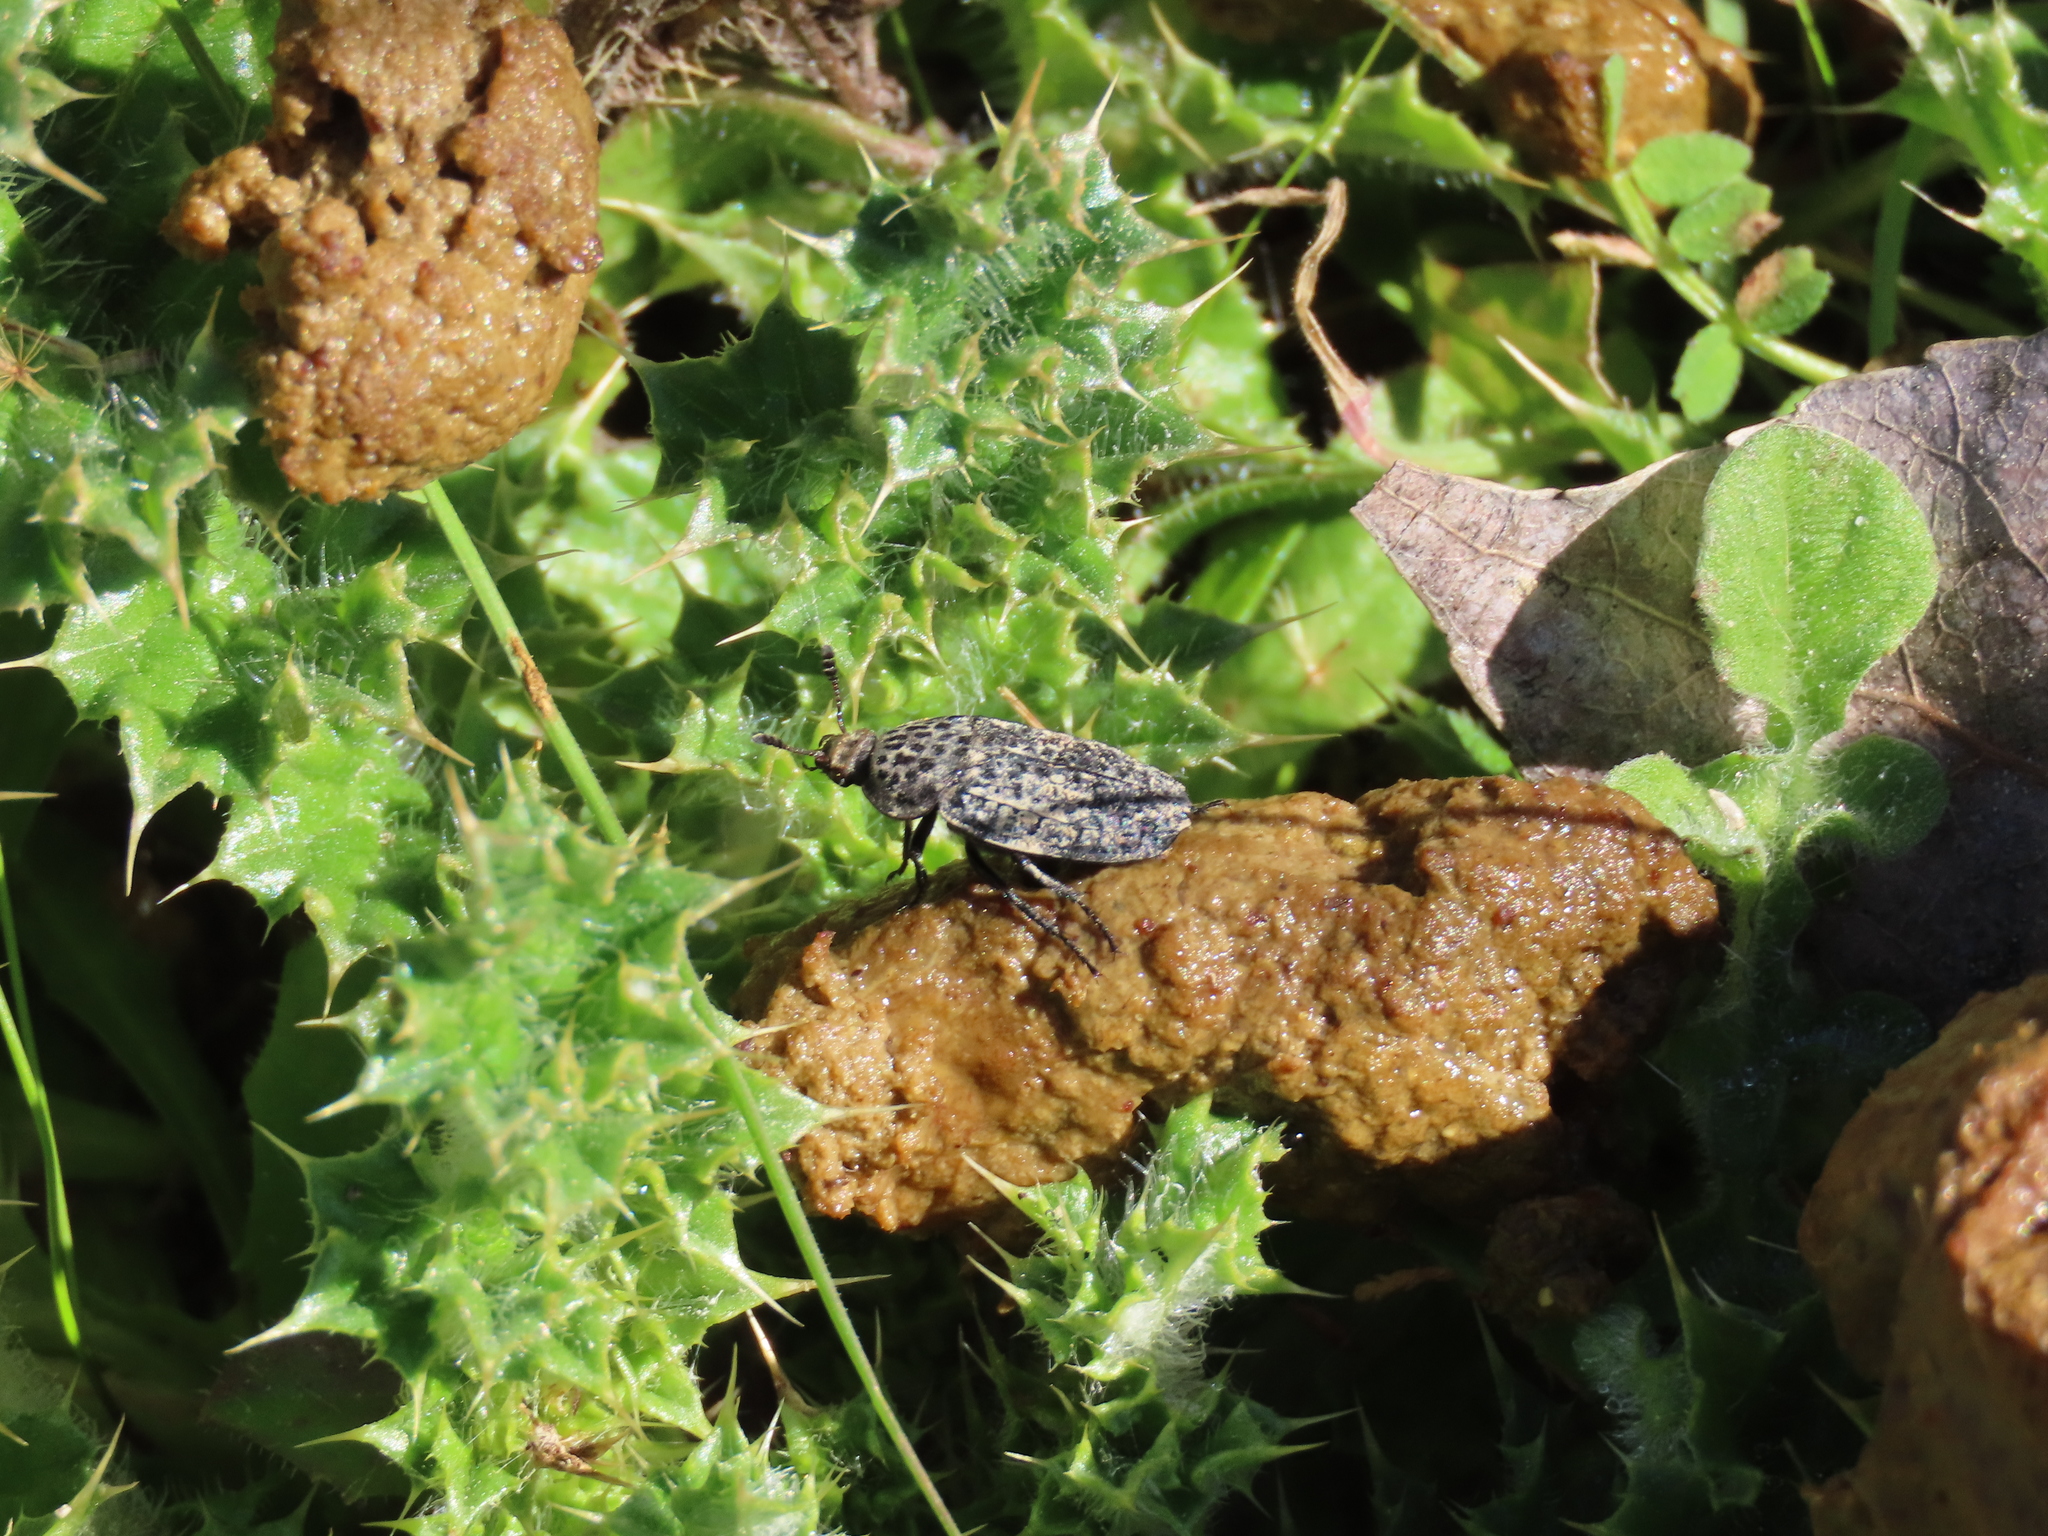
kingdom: Animalia
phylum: Arthropoda
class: Insecta
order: Coleoptera
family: Staphylinidae
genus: Thanatophilus
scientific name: Thanatophilus ruficornis
